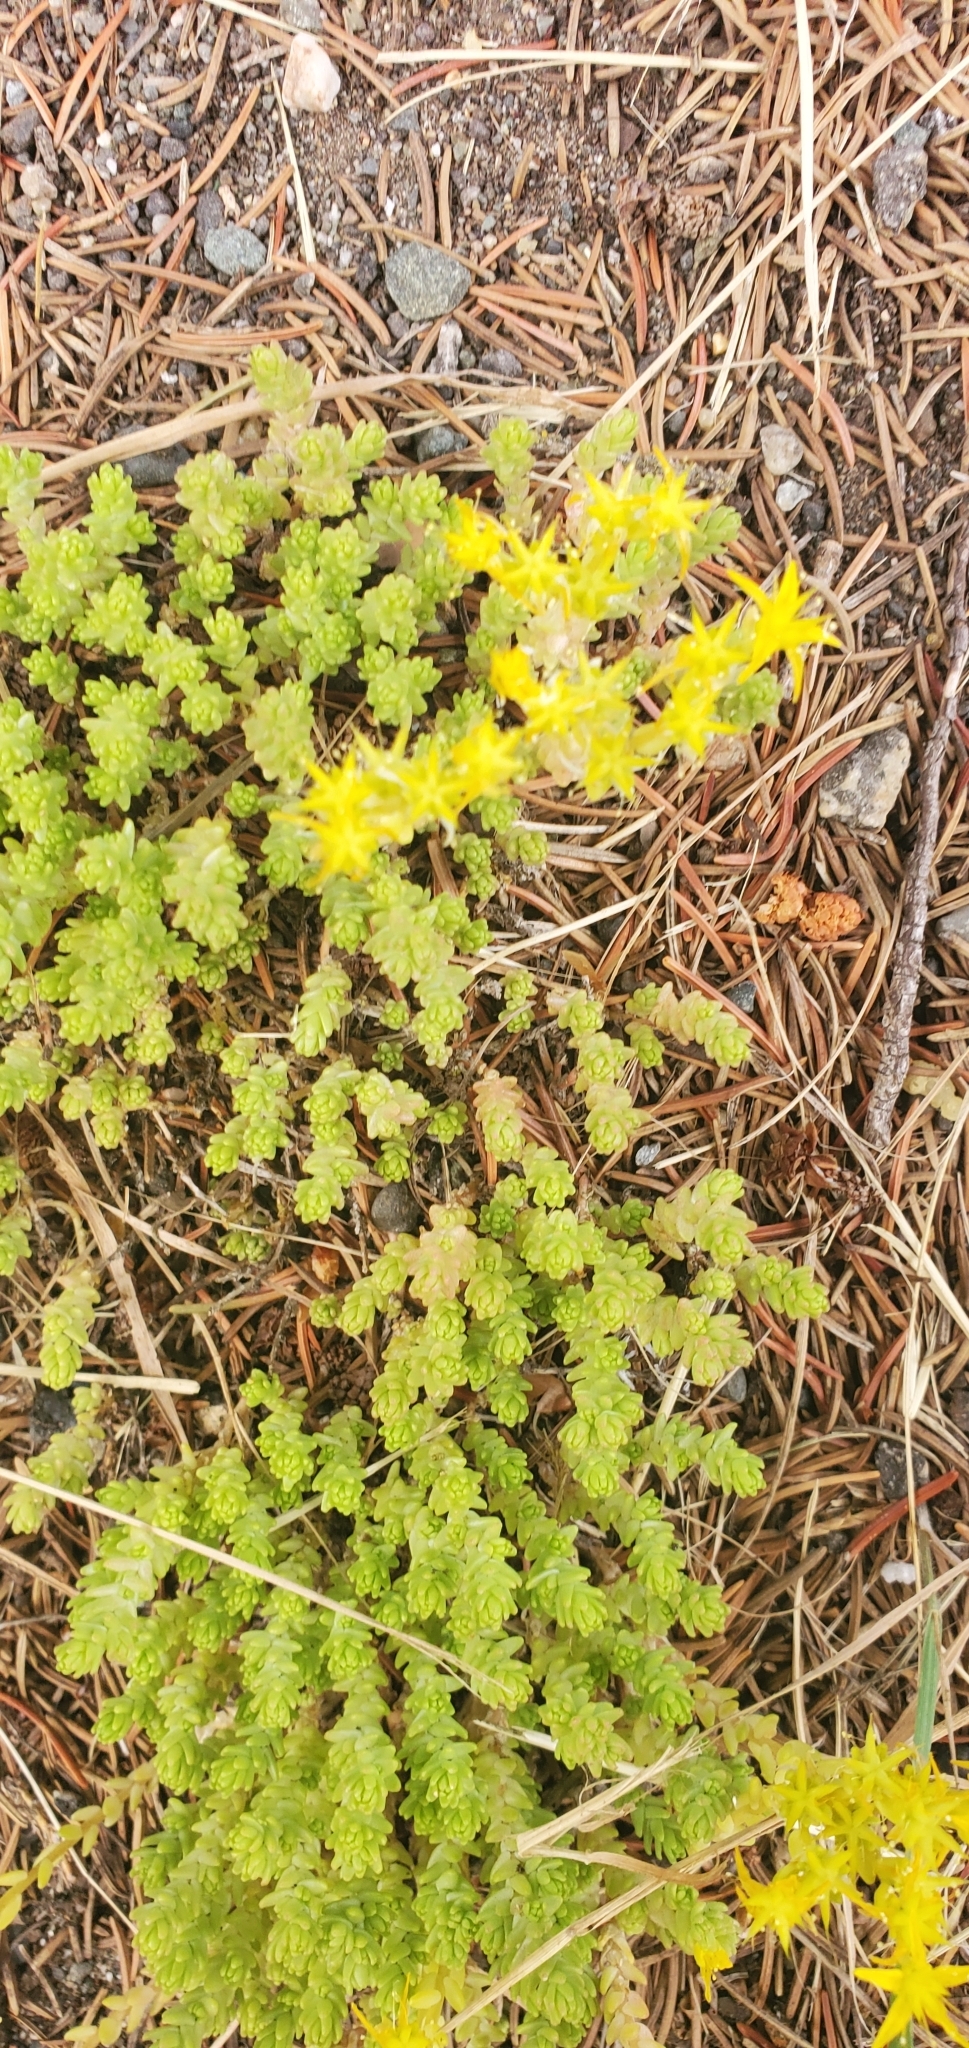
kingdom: Plantae
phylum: Tracheophyta
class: Magnoliopsida
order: Saxifragales
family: Crassulaceae
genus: Sedum
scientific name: Sedum acre
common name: Biting stonecrop
